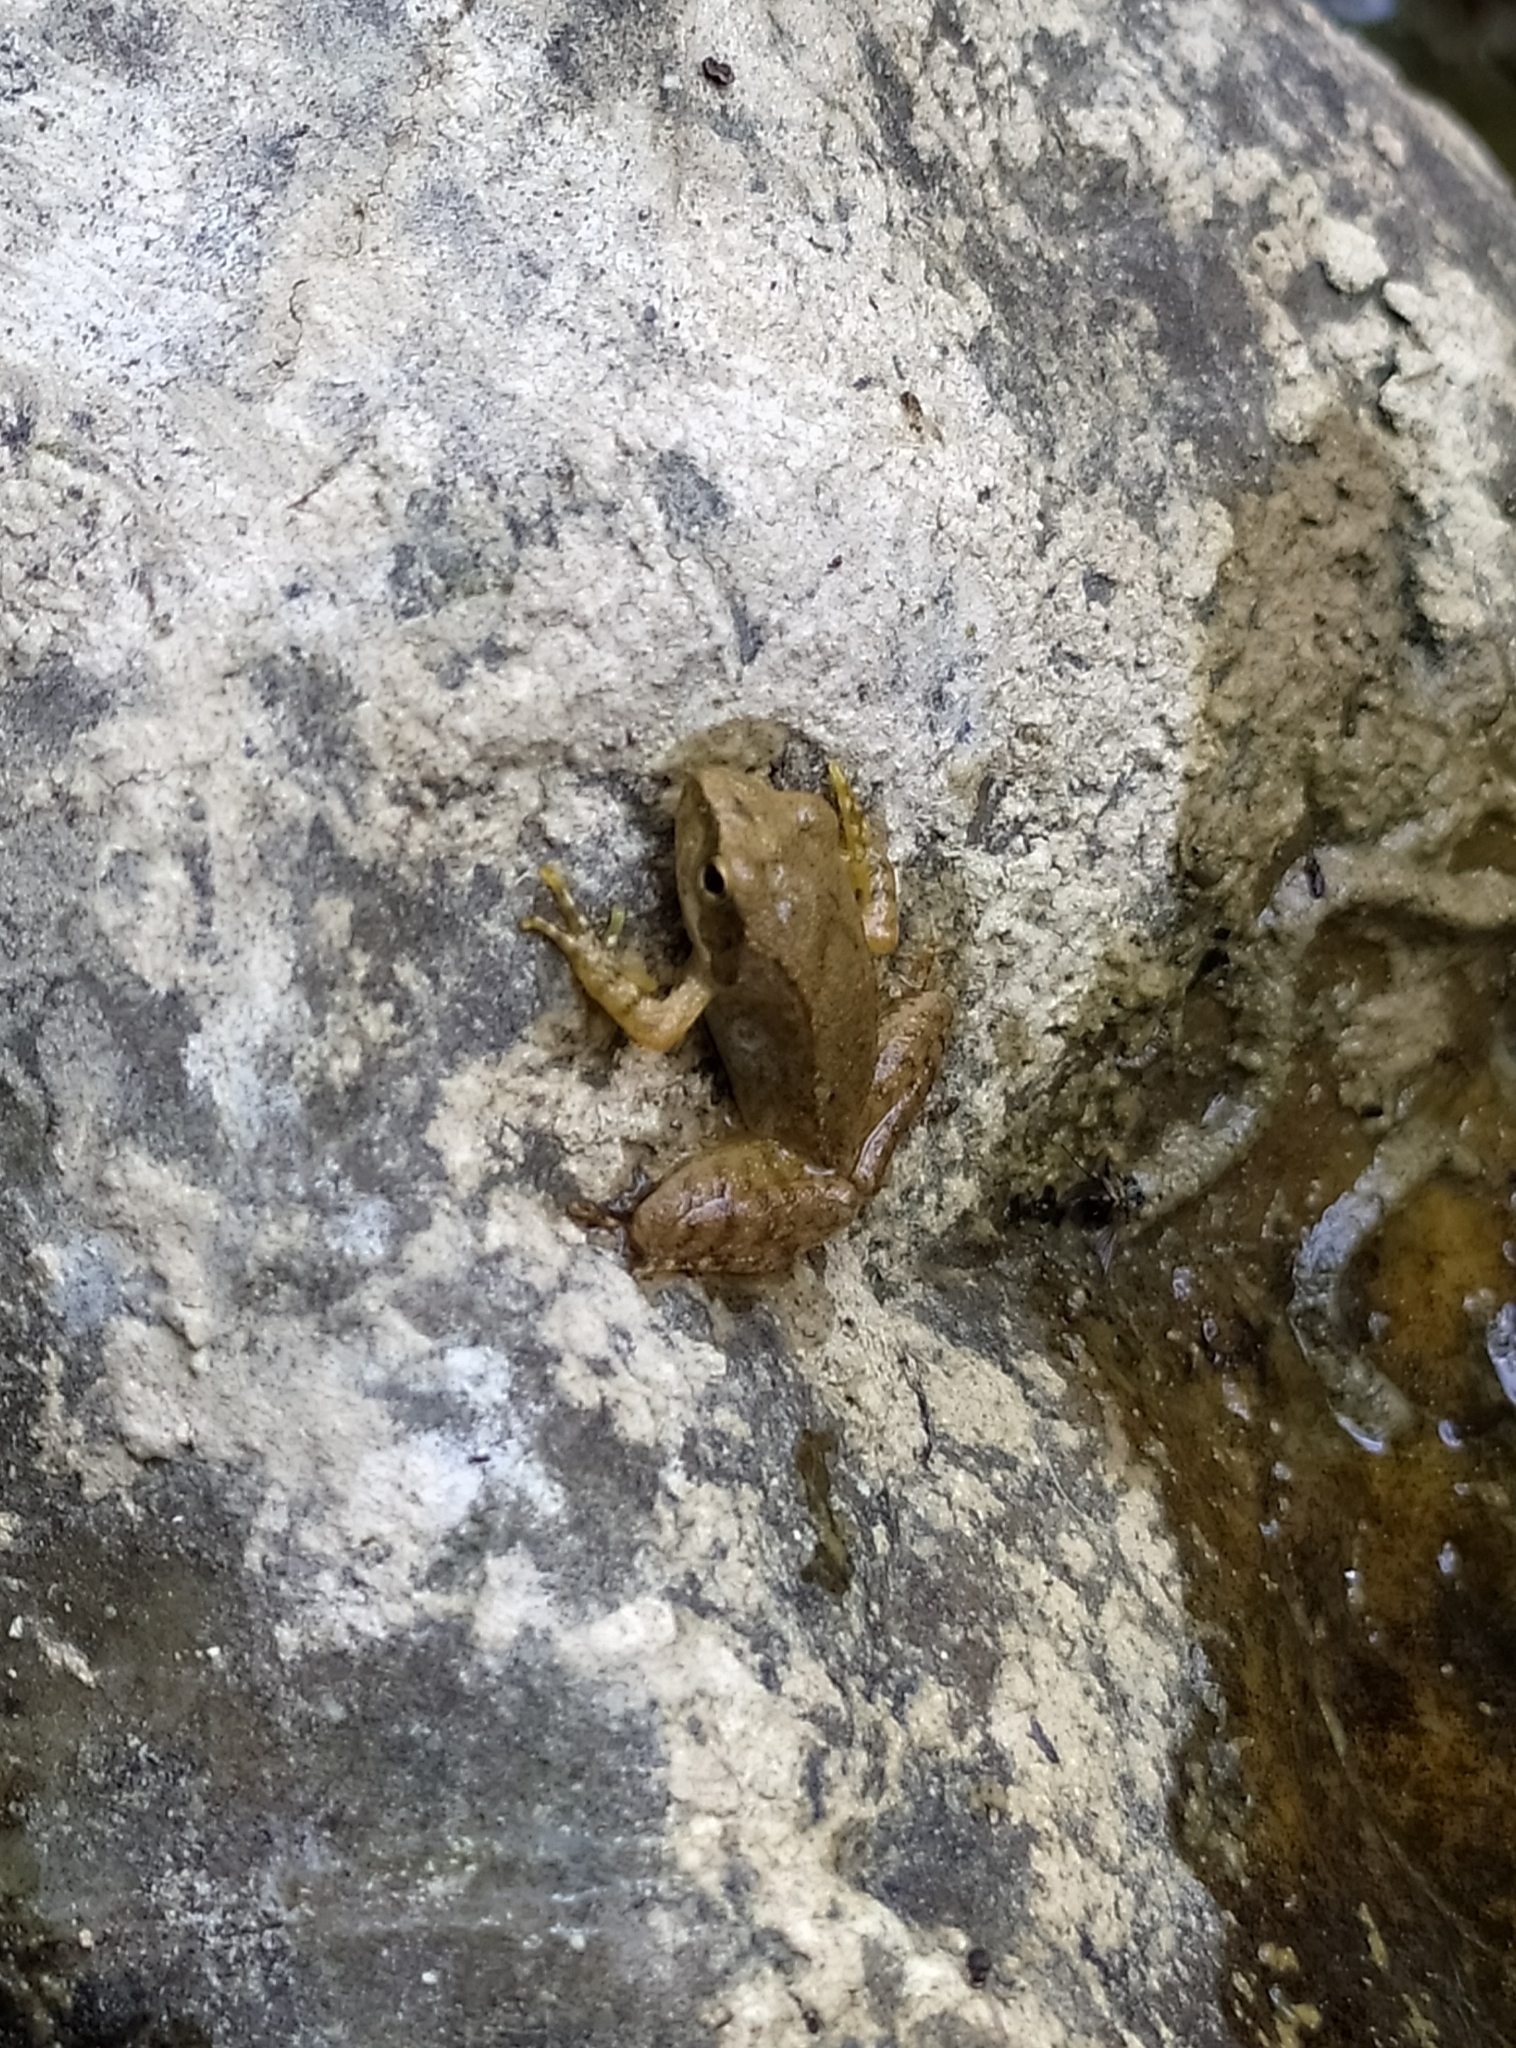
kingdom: Animalia
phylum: Chordata
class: Amphibia
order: Anura
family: Ranidae
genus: Rana
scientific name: Rana italica
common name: Italian stream frog
